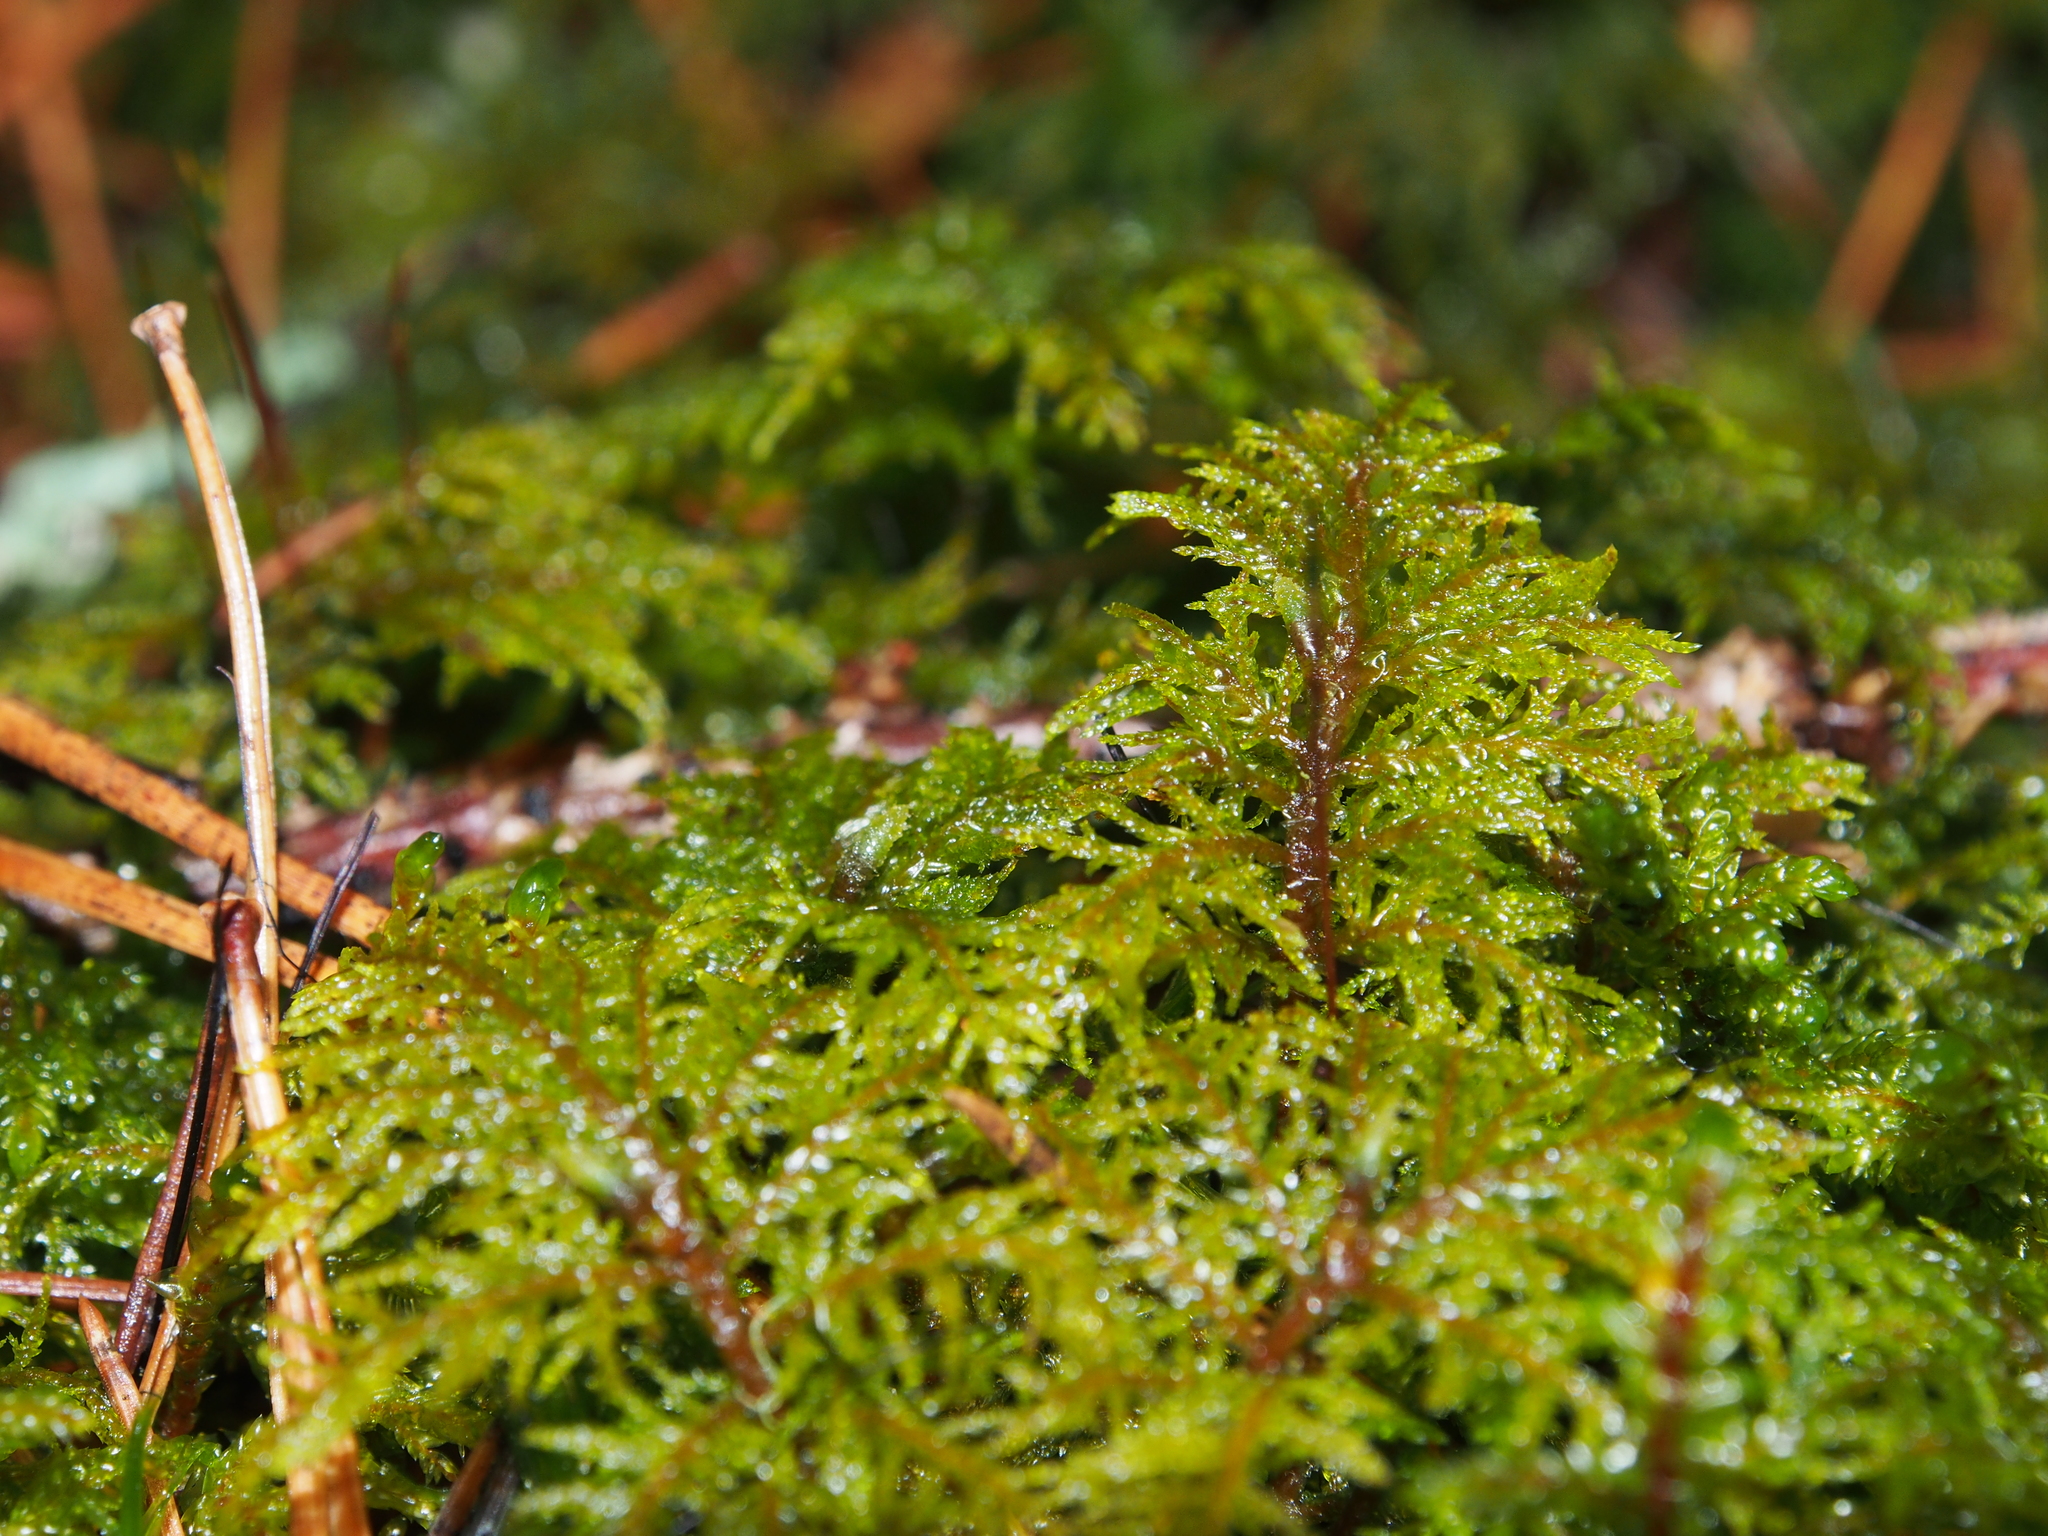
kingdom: Plantae
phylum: Bryophyta
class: Bryopsida
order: Hypnales
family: Hylocomiaceae
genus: Hylocomium
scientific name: Hylocomium splendens
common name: Stairstep moss
